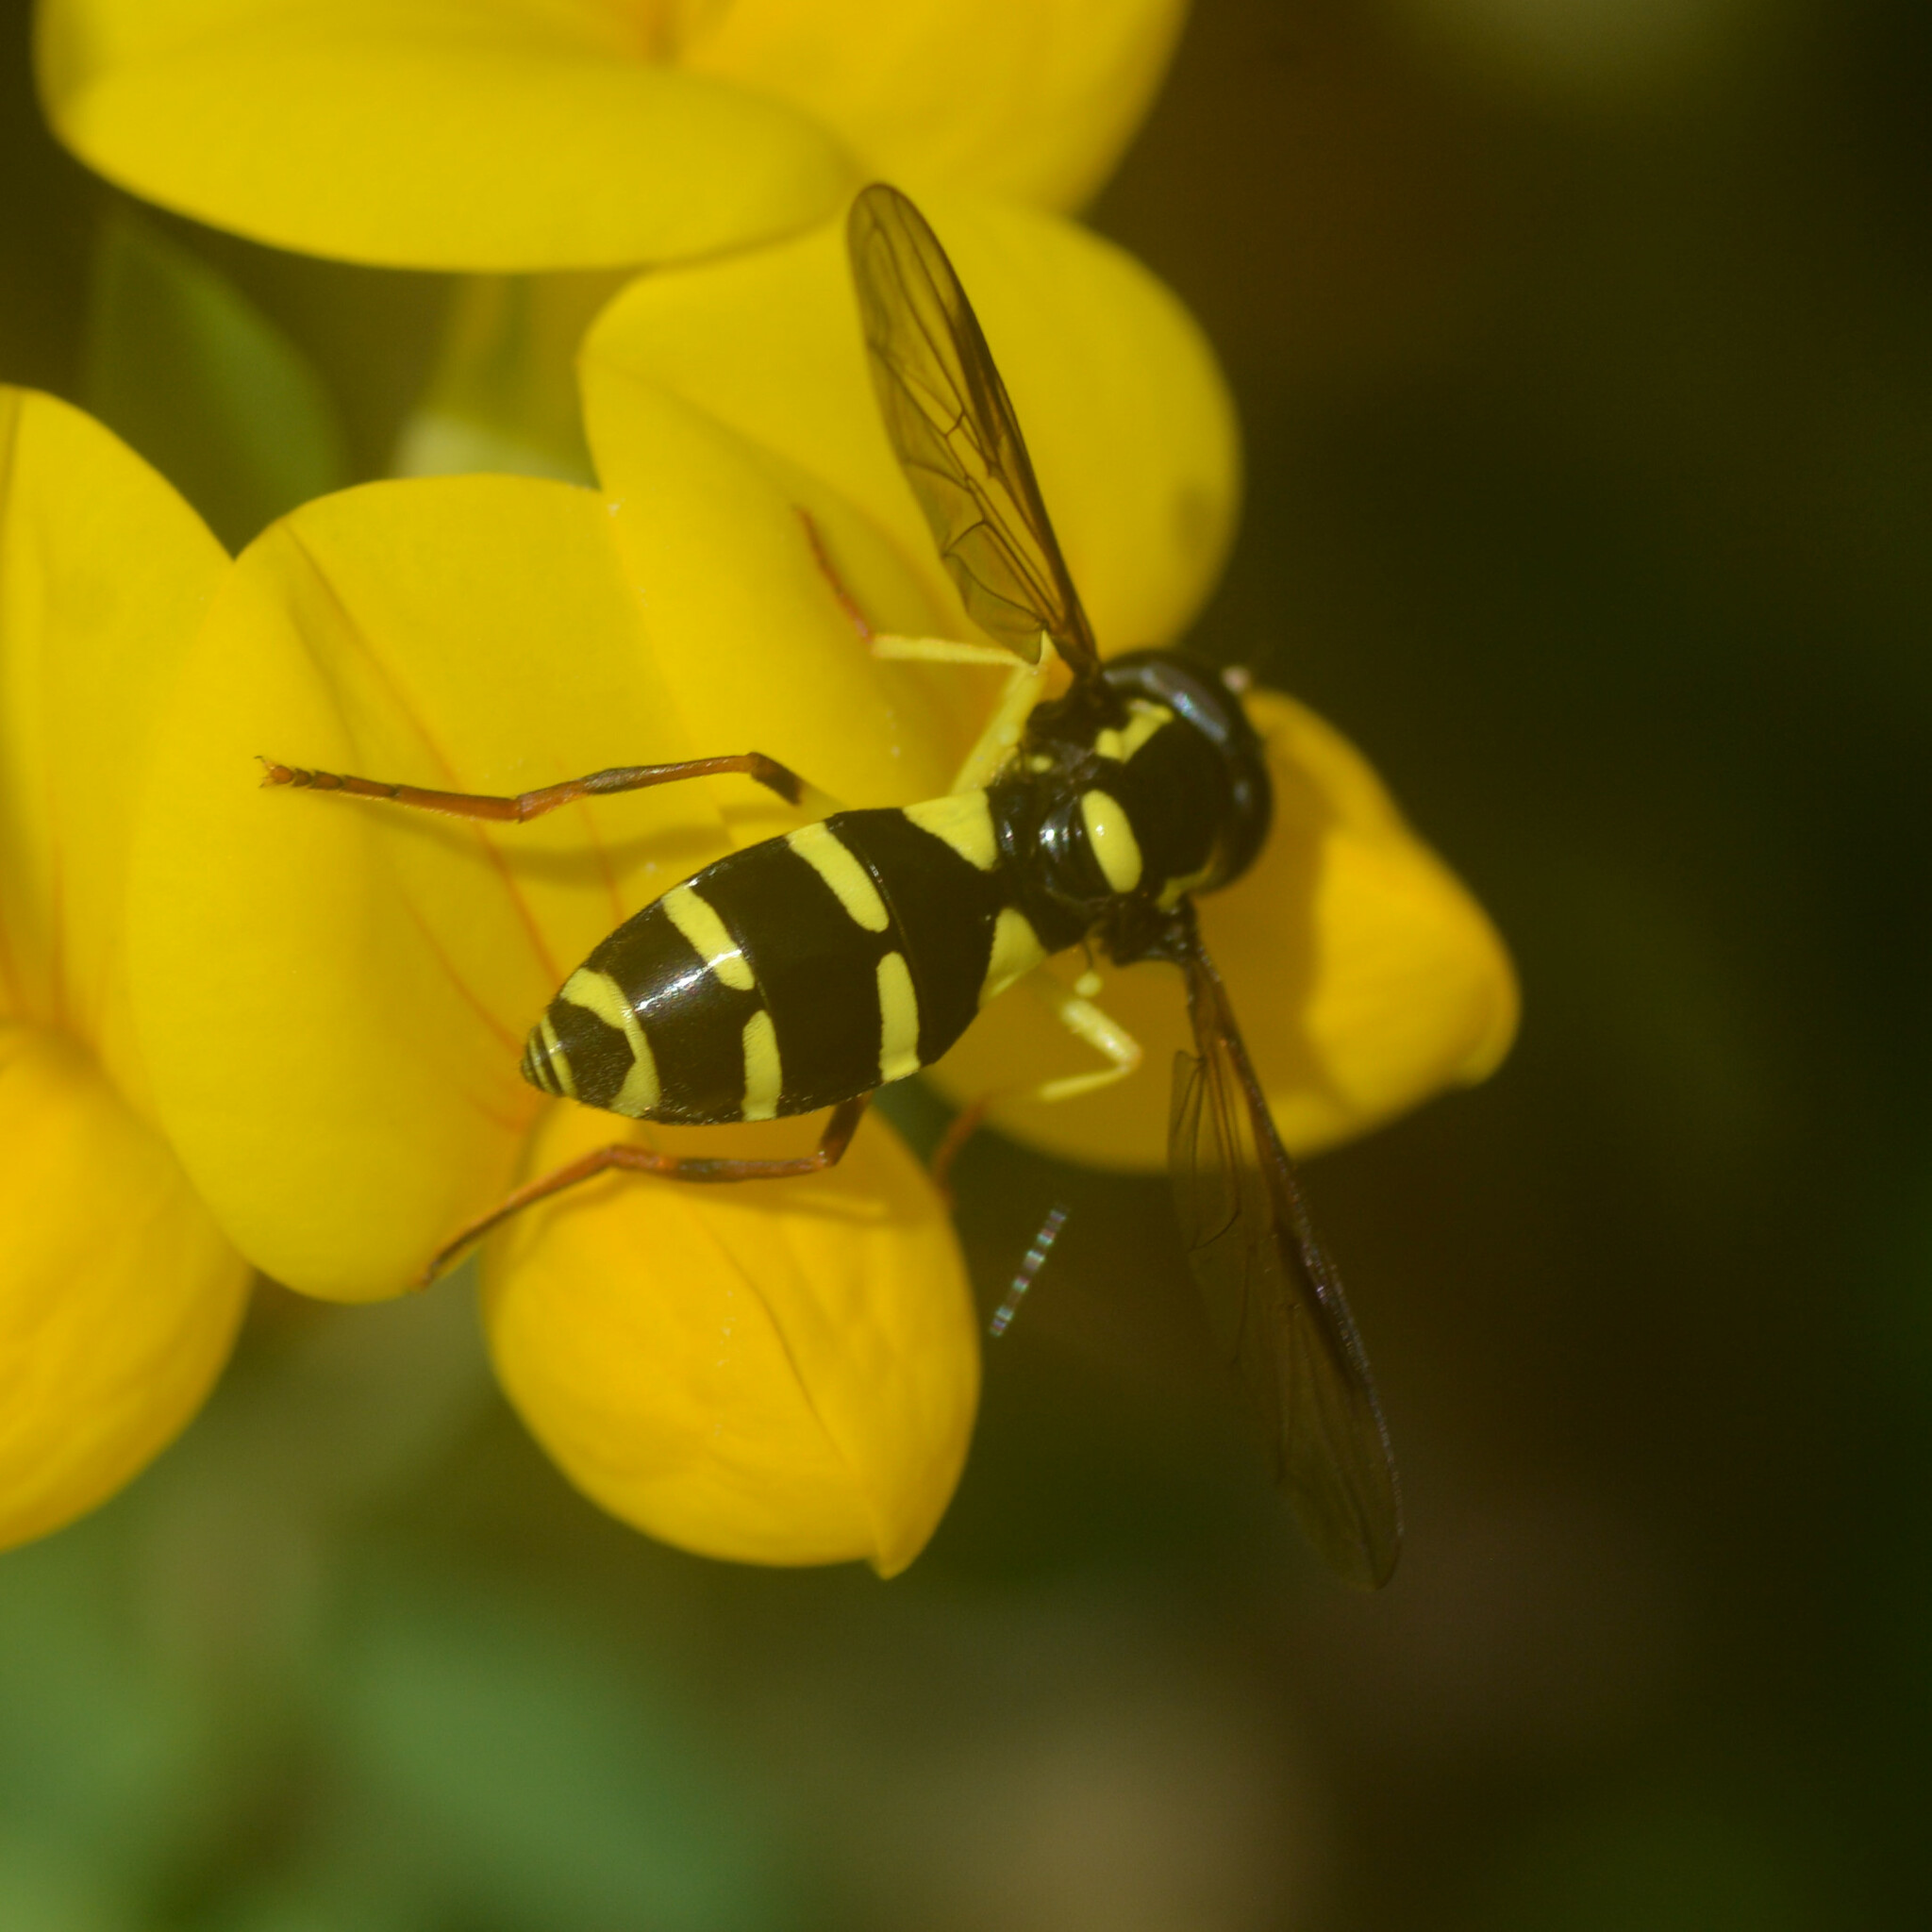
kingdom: Animalia
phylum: Arthropoda
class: Insecta
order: Diptera
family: Syrphidae
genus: Philhelius
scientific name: Philhelius pedissequum
